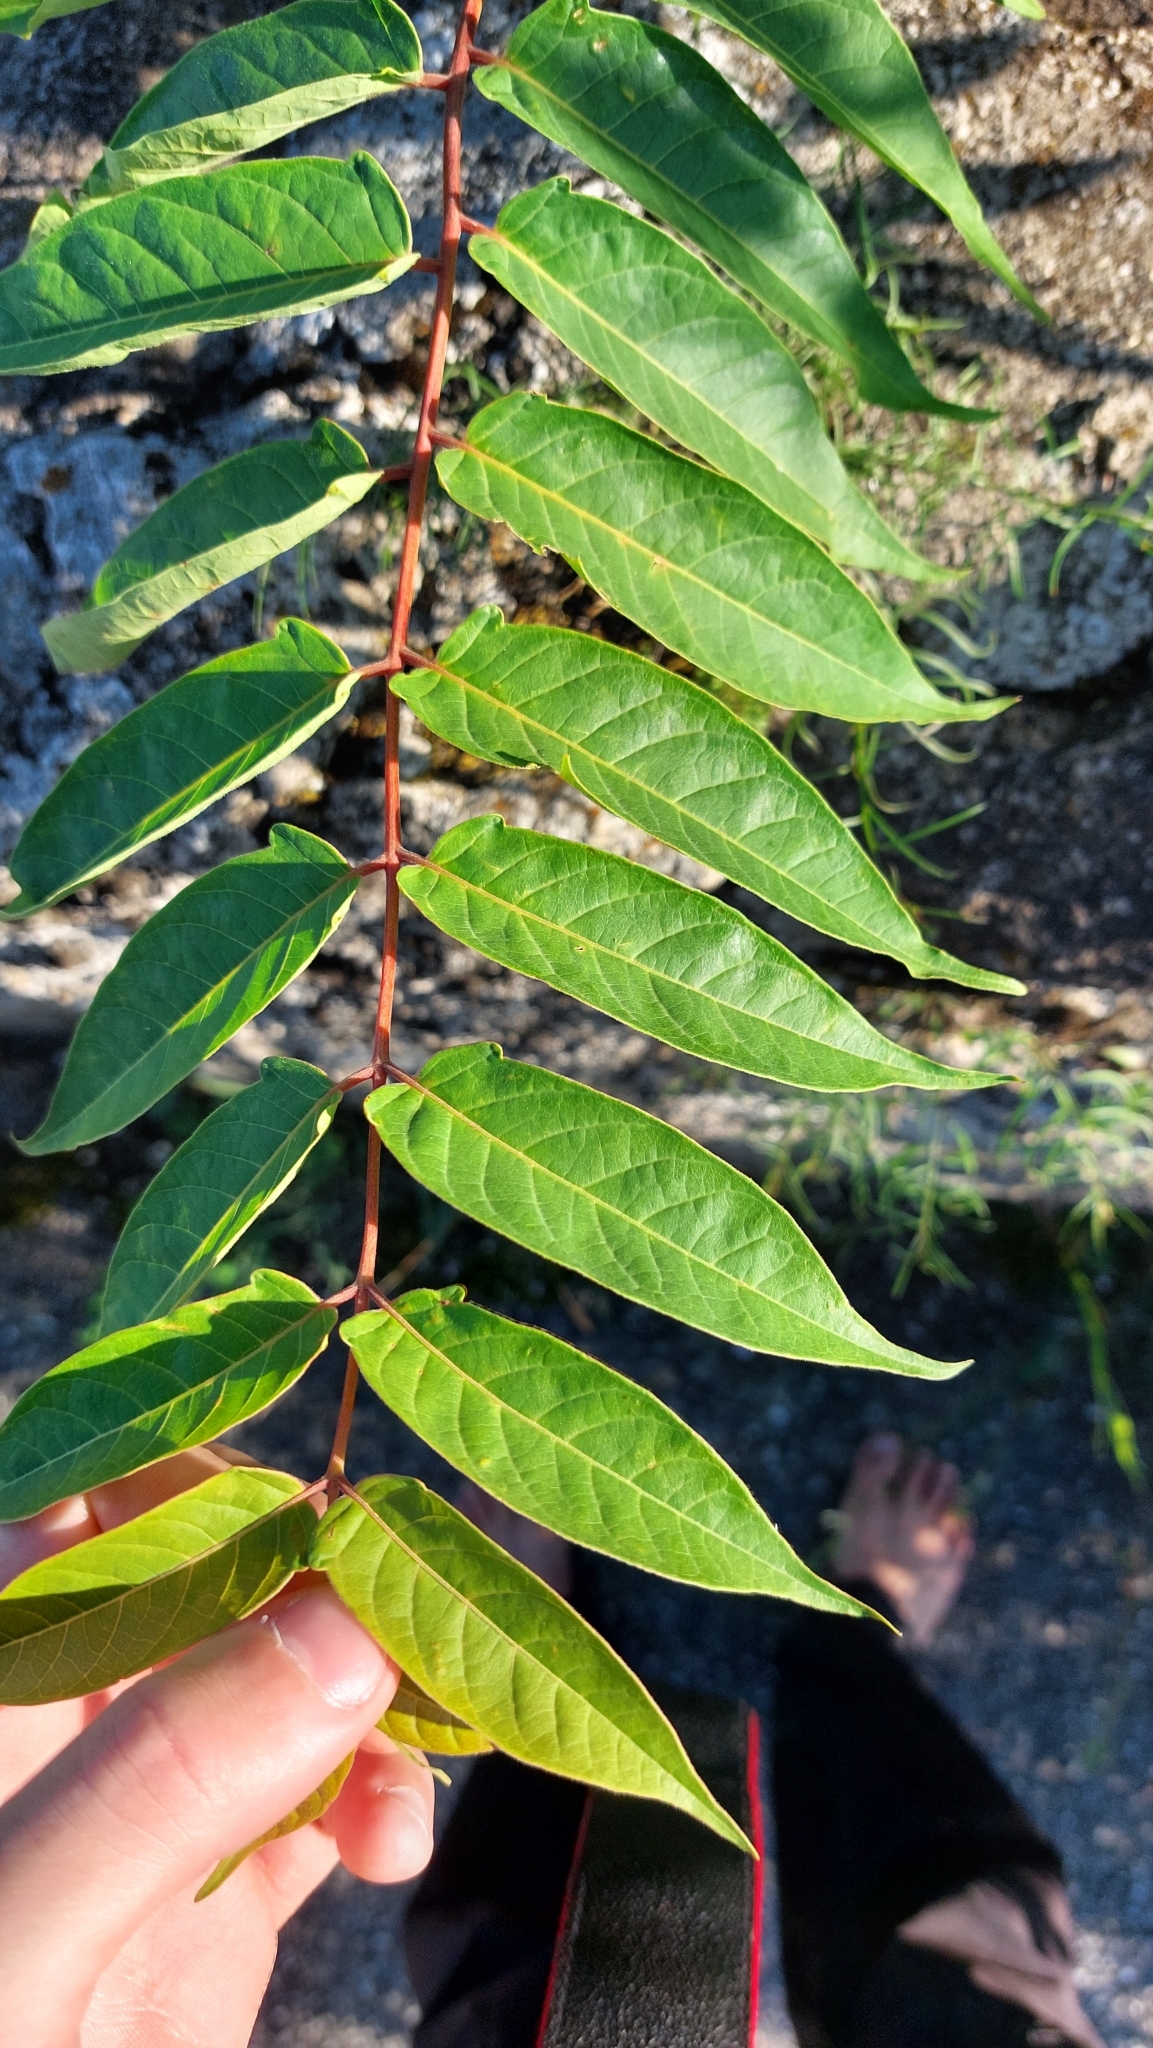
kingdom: Plantae
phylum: Tracheophyta
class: Magnoliopsida
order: Sapindales
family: Simaroubaceae
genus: Ailanthus
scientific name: Ailanthus altissima
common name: Tree-of-heaven
